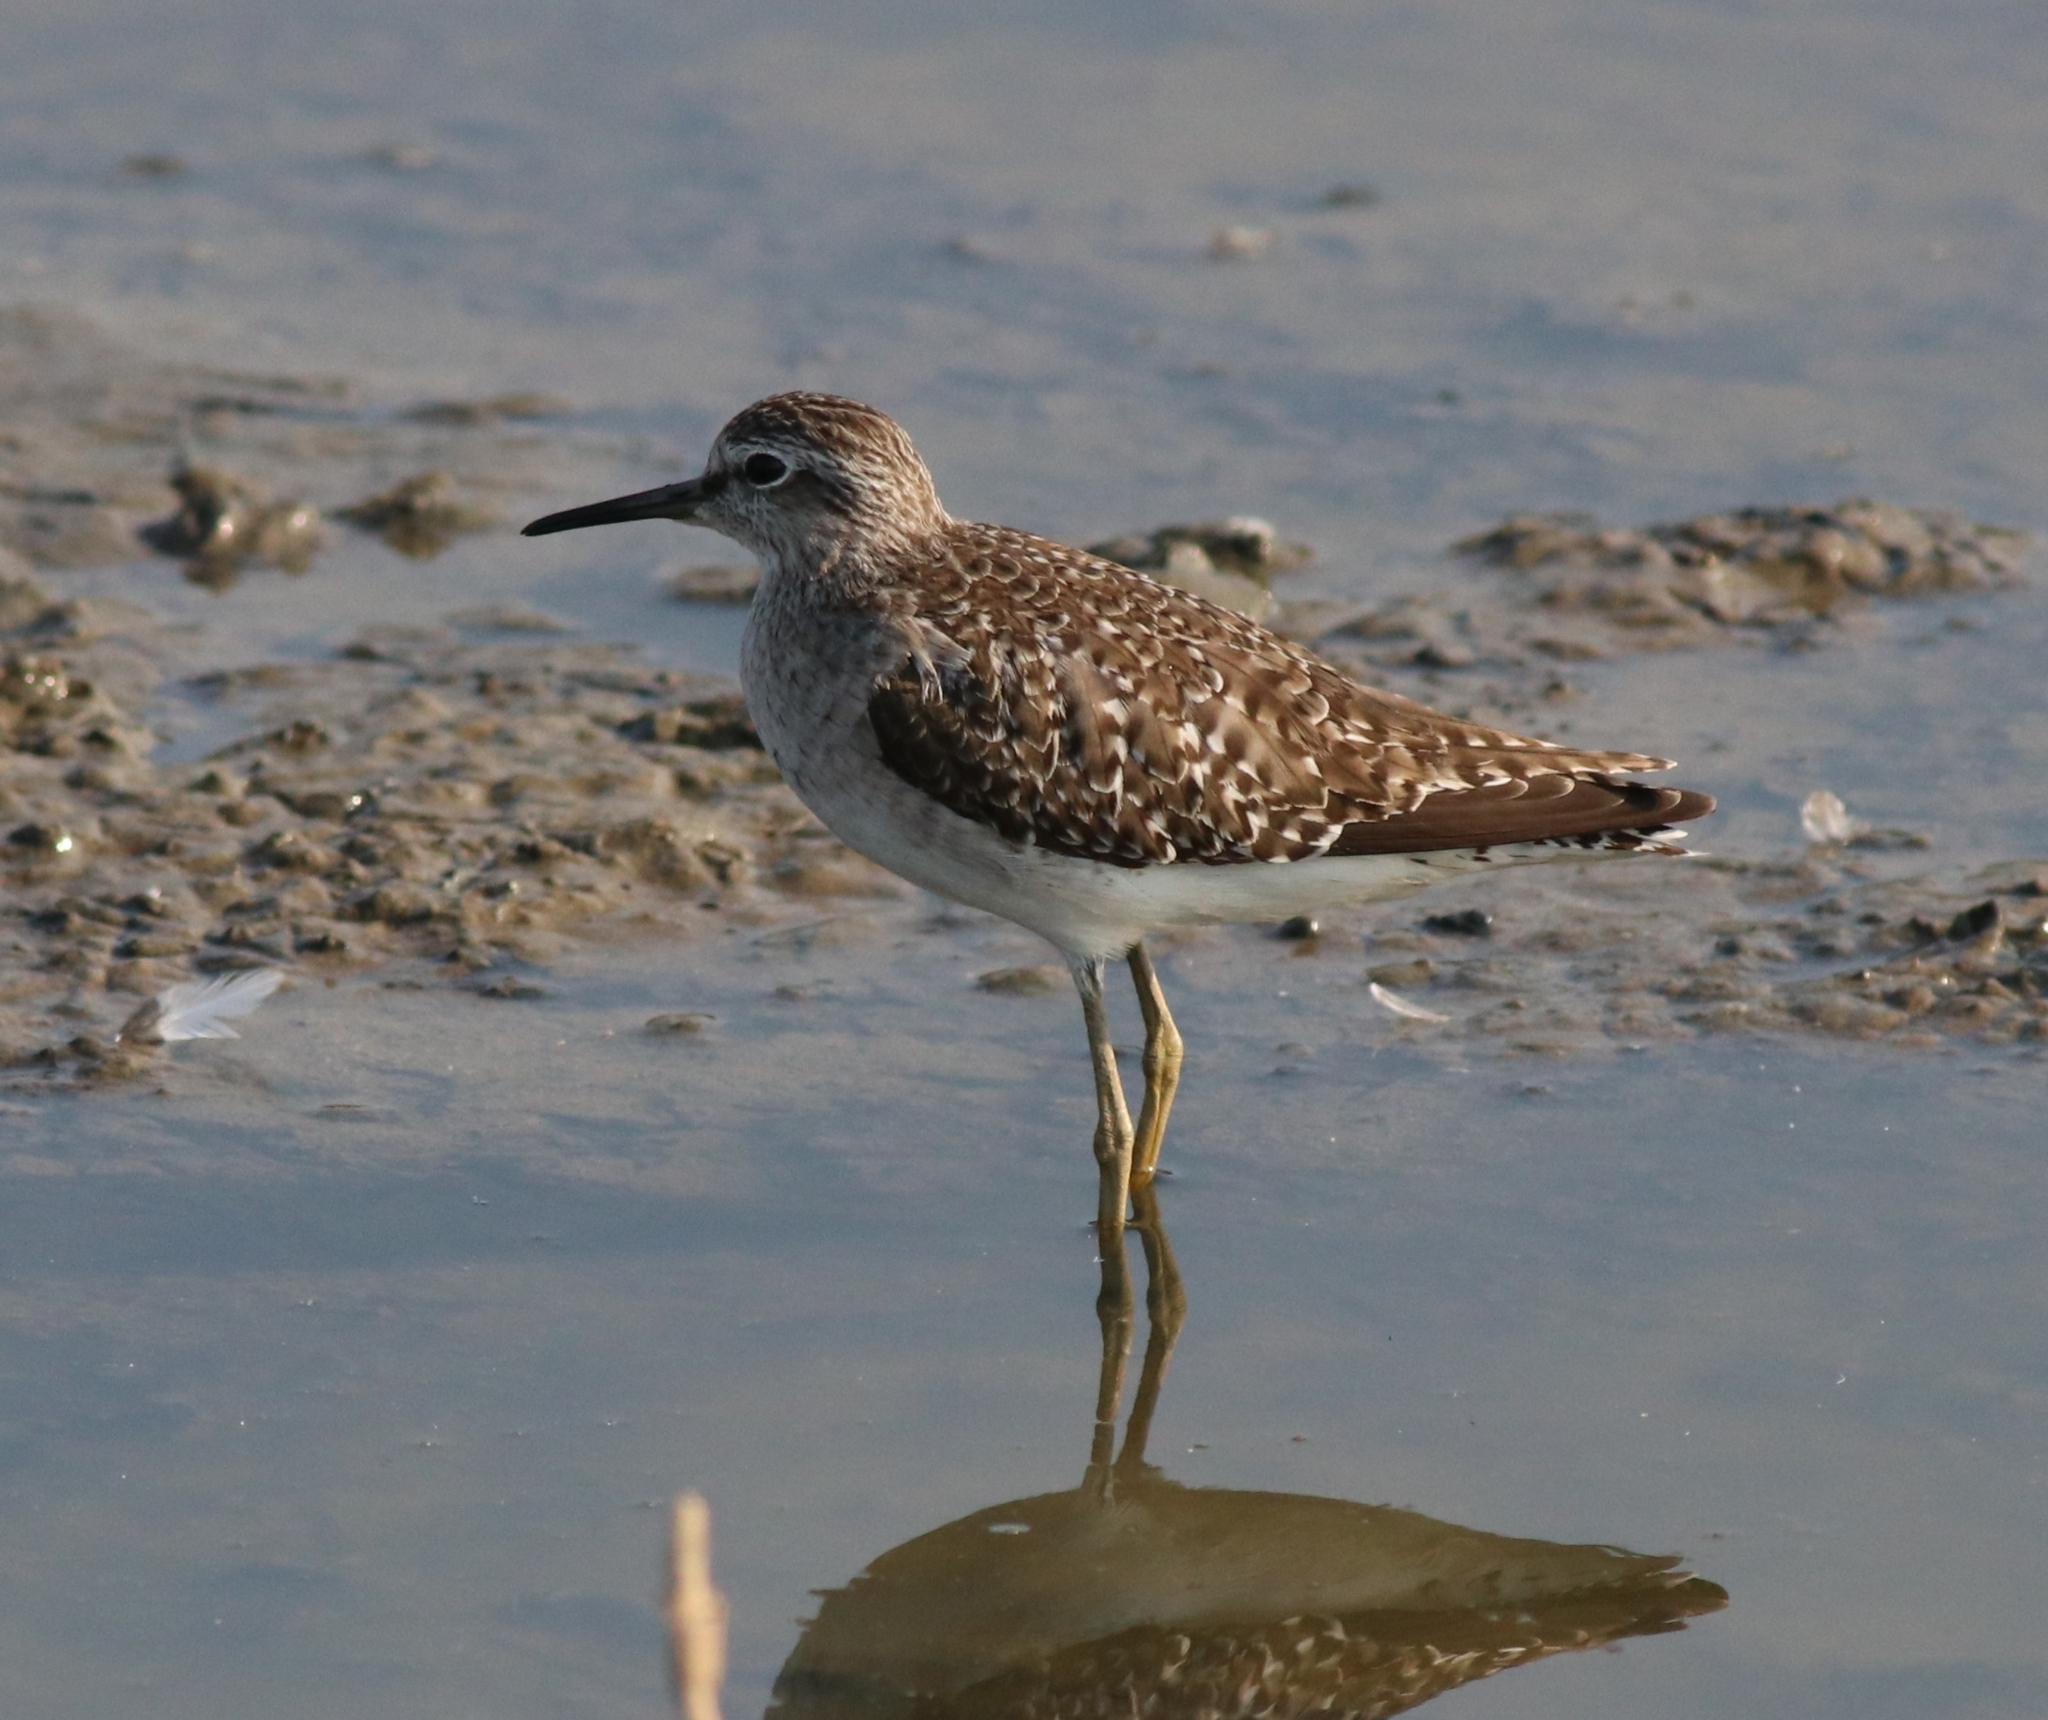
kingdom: Animalia
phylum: Chordata
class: Aves
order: Charadriiformes
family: Scolopacidae
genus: Tringa
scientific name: Tringa glareola
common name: Wood sandpiper
